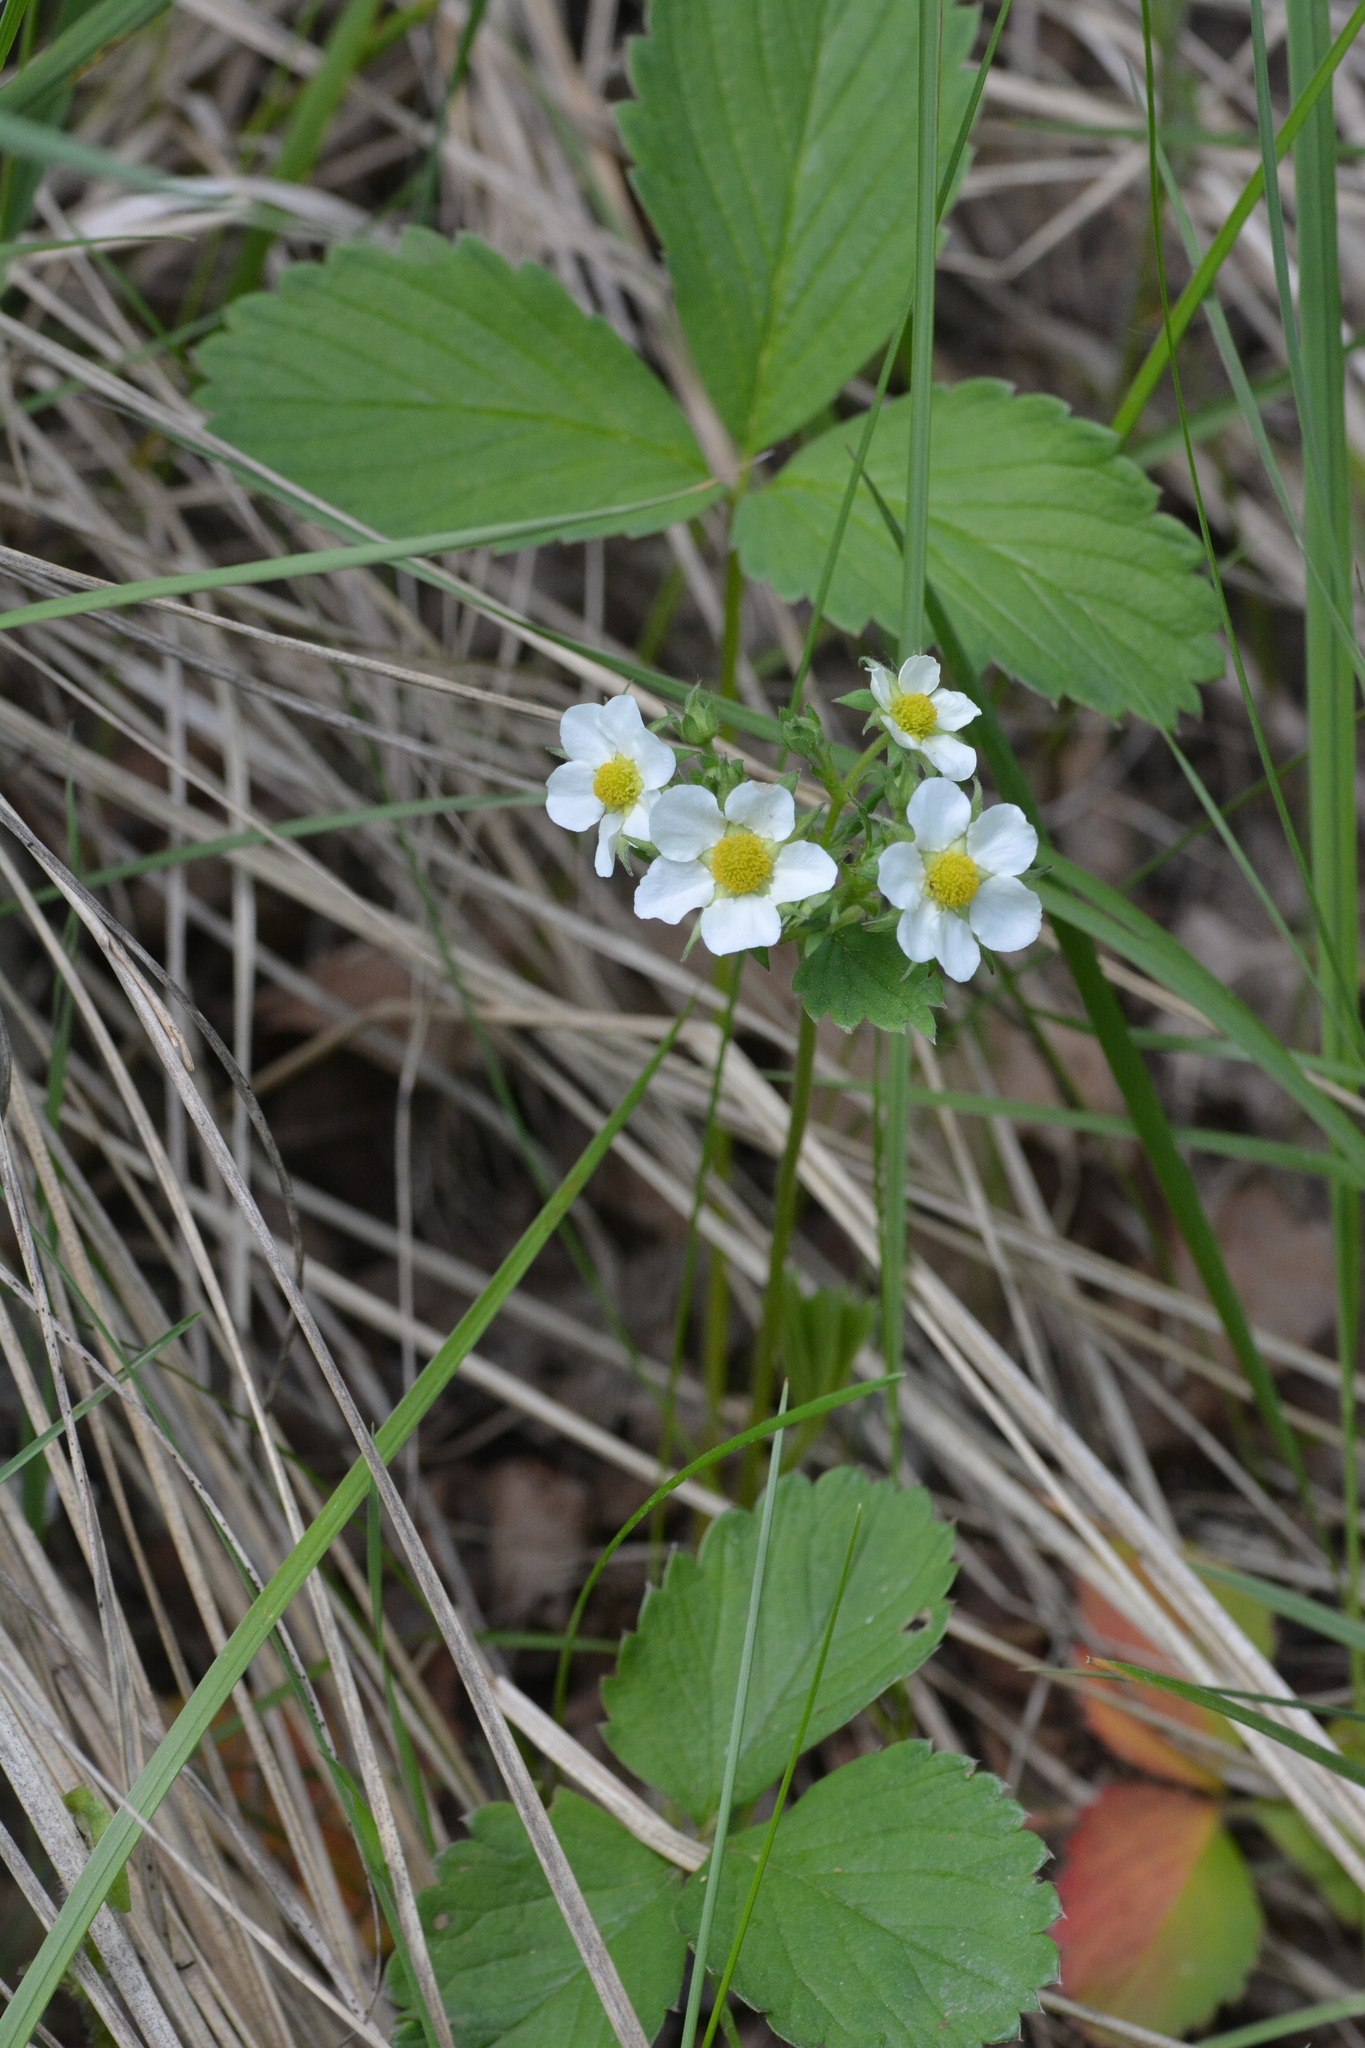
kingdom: Plantae
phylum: Tracheophyta
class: Magnoliopsida
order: Rosales
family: Rosaceae
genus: Fragaria
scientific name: Fragaria ananassa
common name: Garden strawberry
